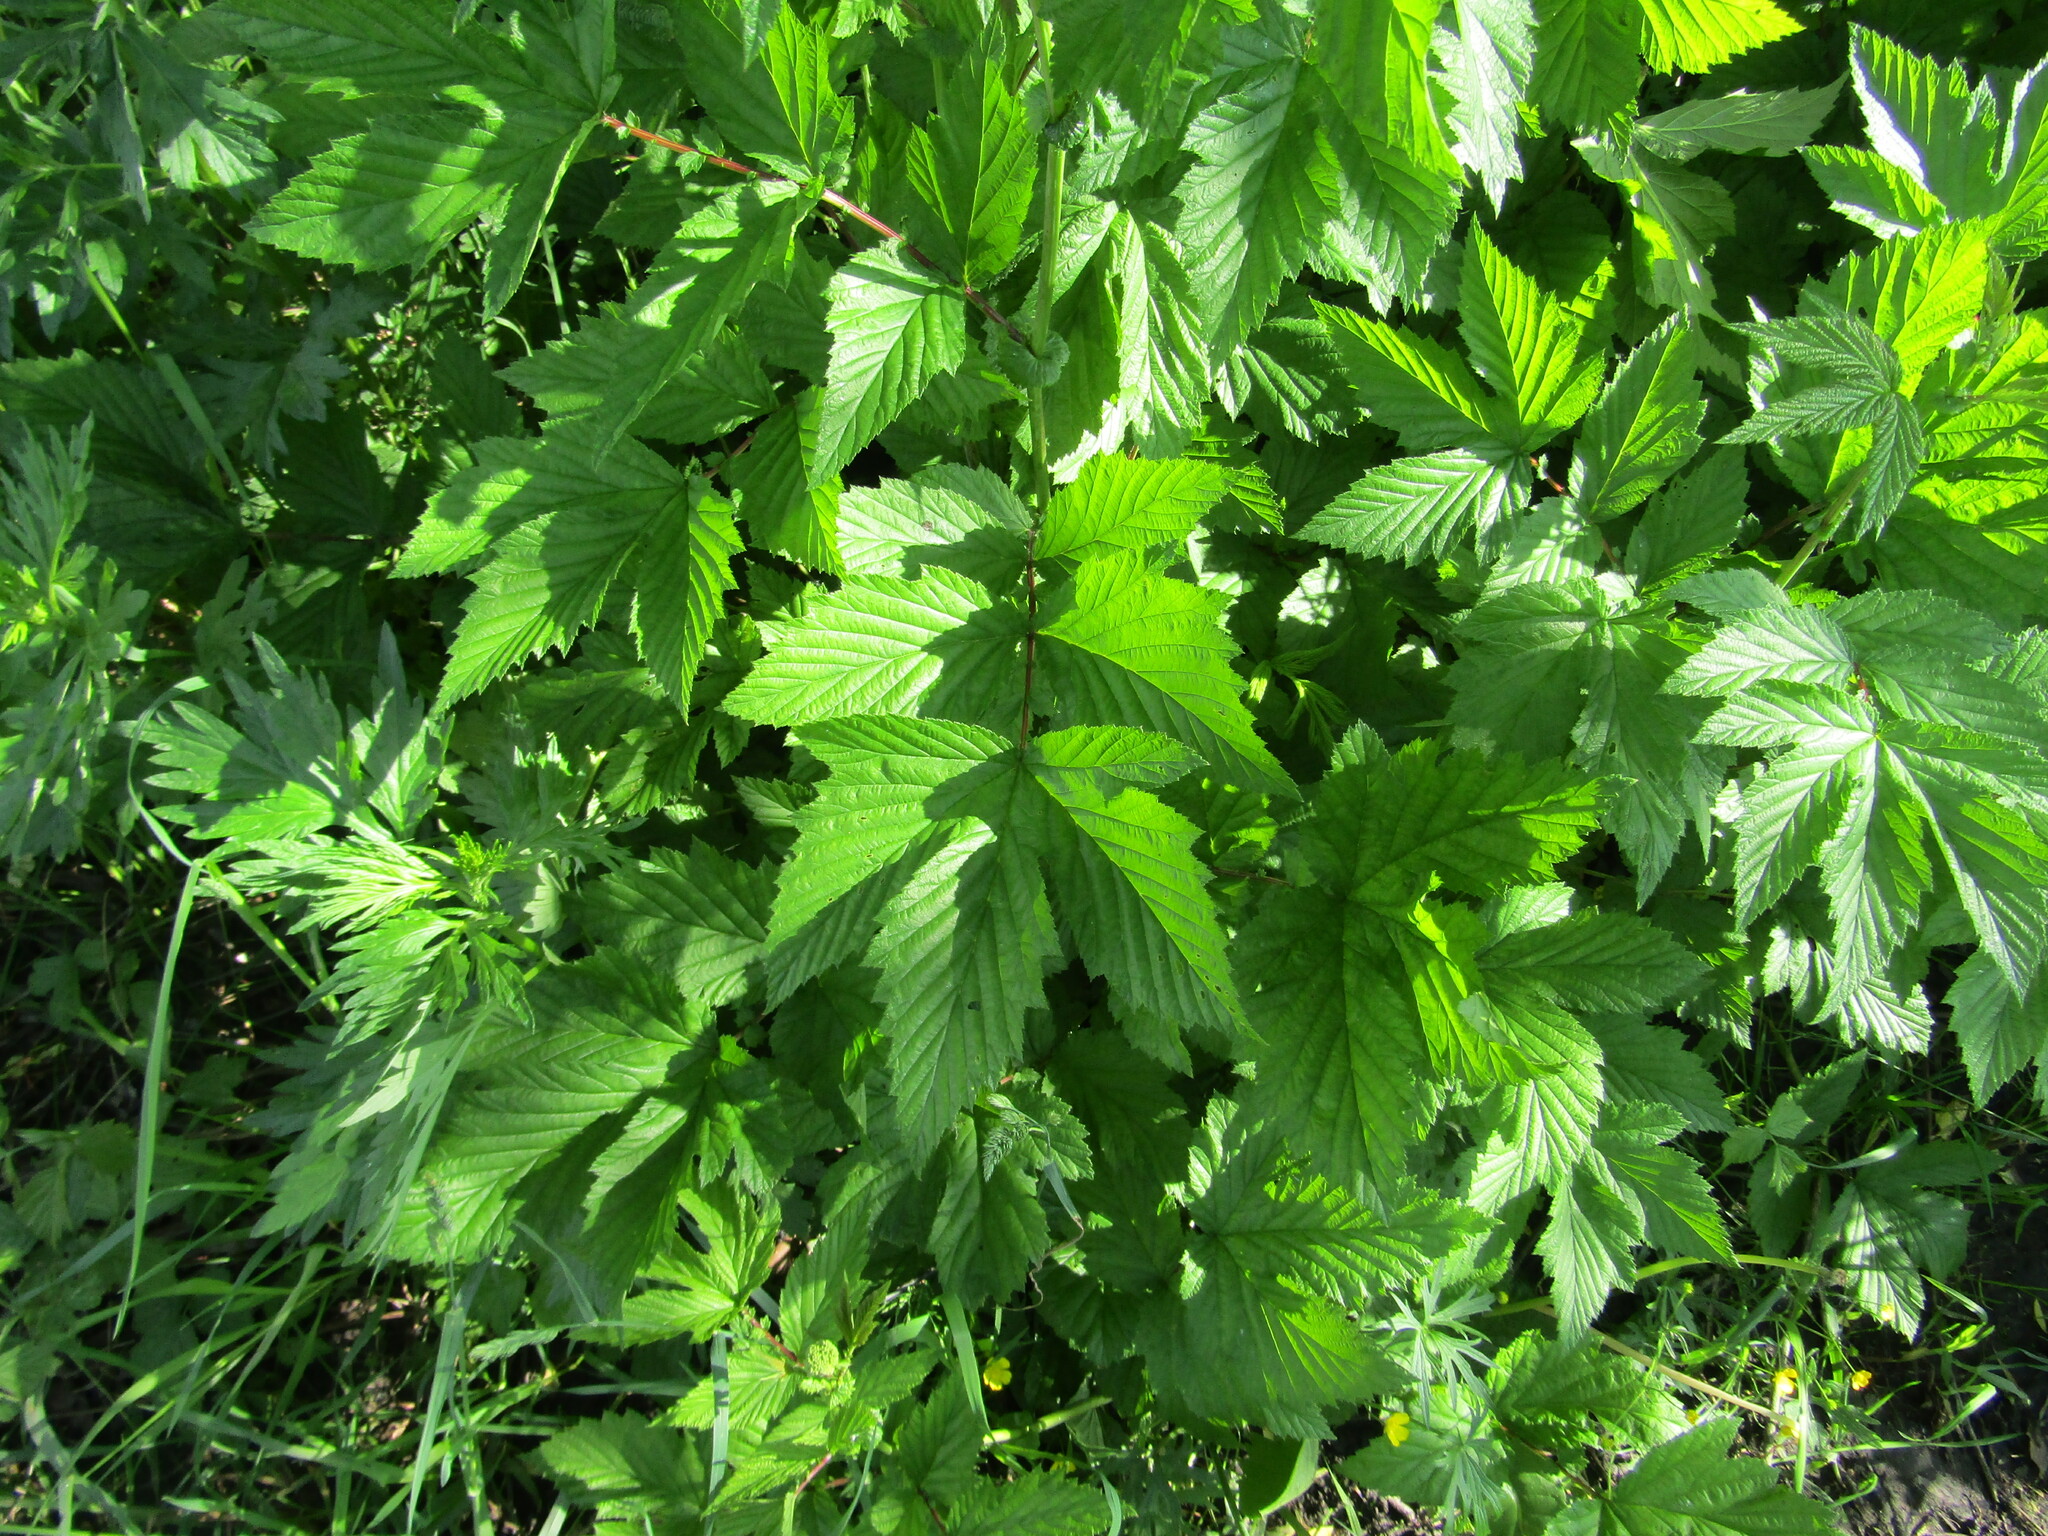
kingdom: Plantae
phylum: Tracheophyta
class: Magnoliopsida
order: Rosales
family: Rosaceae
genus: Filipendula
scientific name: Filipendula ulmaria
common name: Meadowsweet
